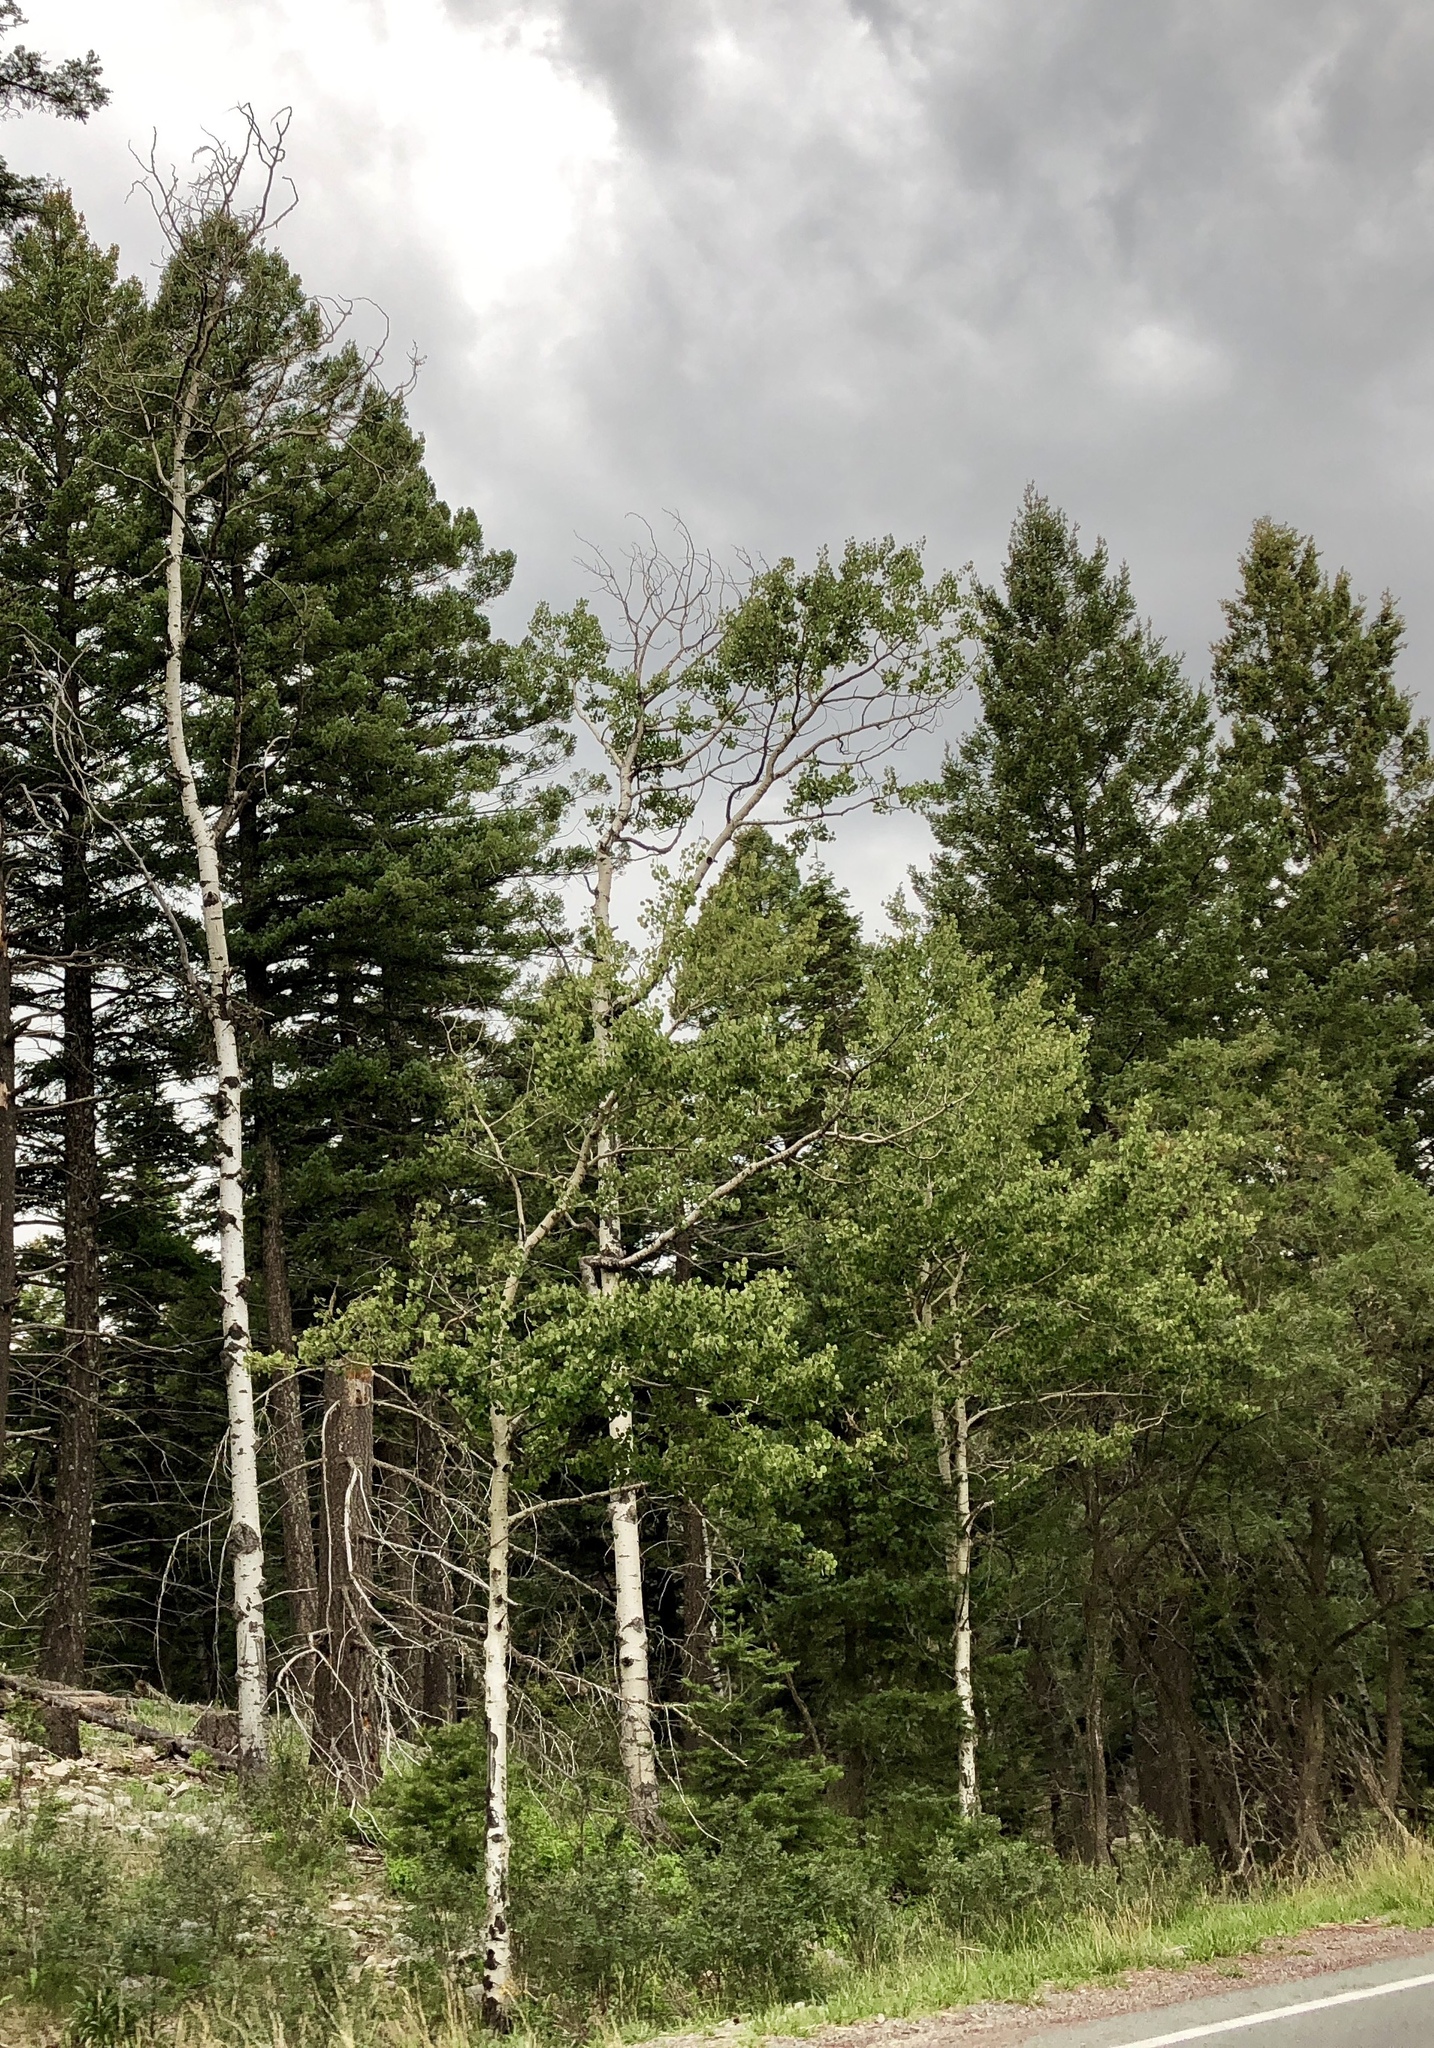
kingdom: Plantae
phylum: Tracheophyta
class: Magnoliopsida
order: Malpighiales
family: Salicaceae
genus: Populus
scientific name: Populus tremuloides
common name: Quaking aspen
